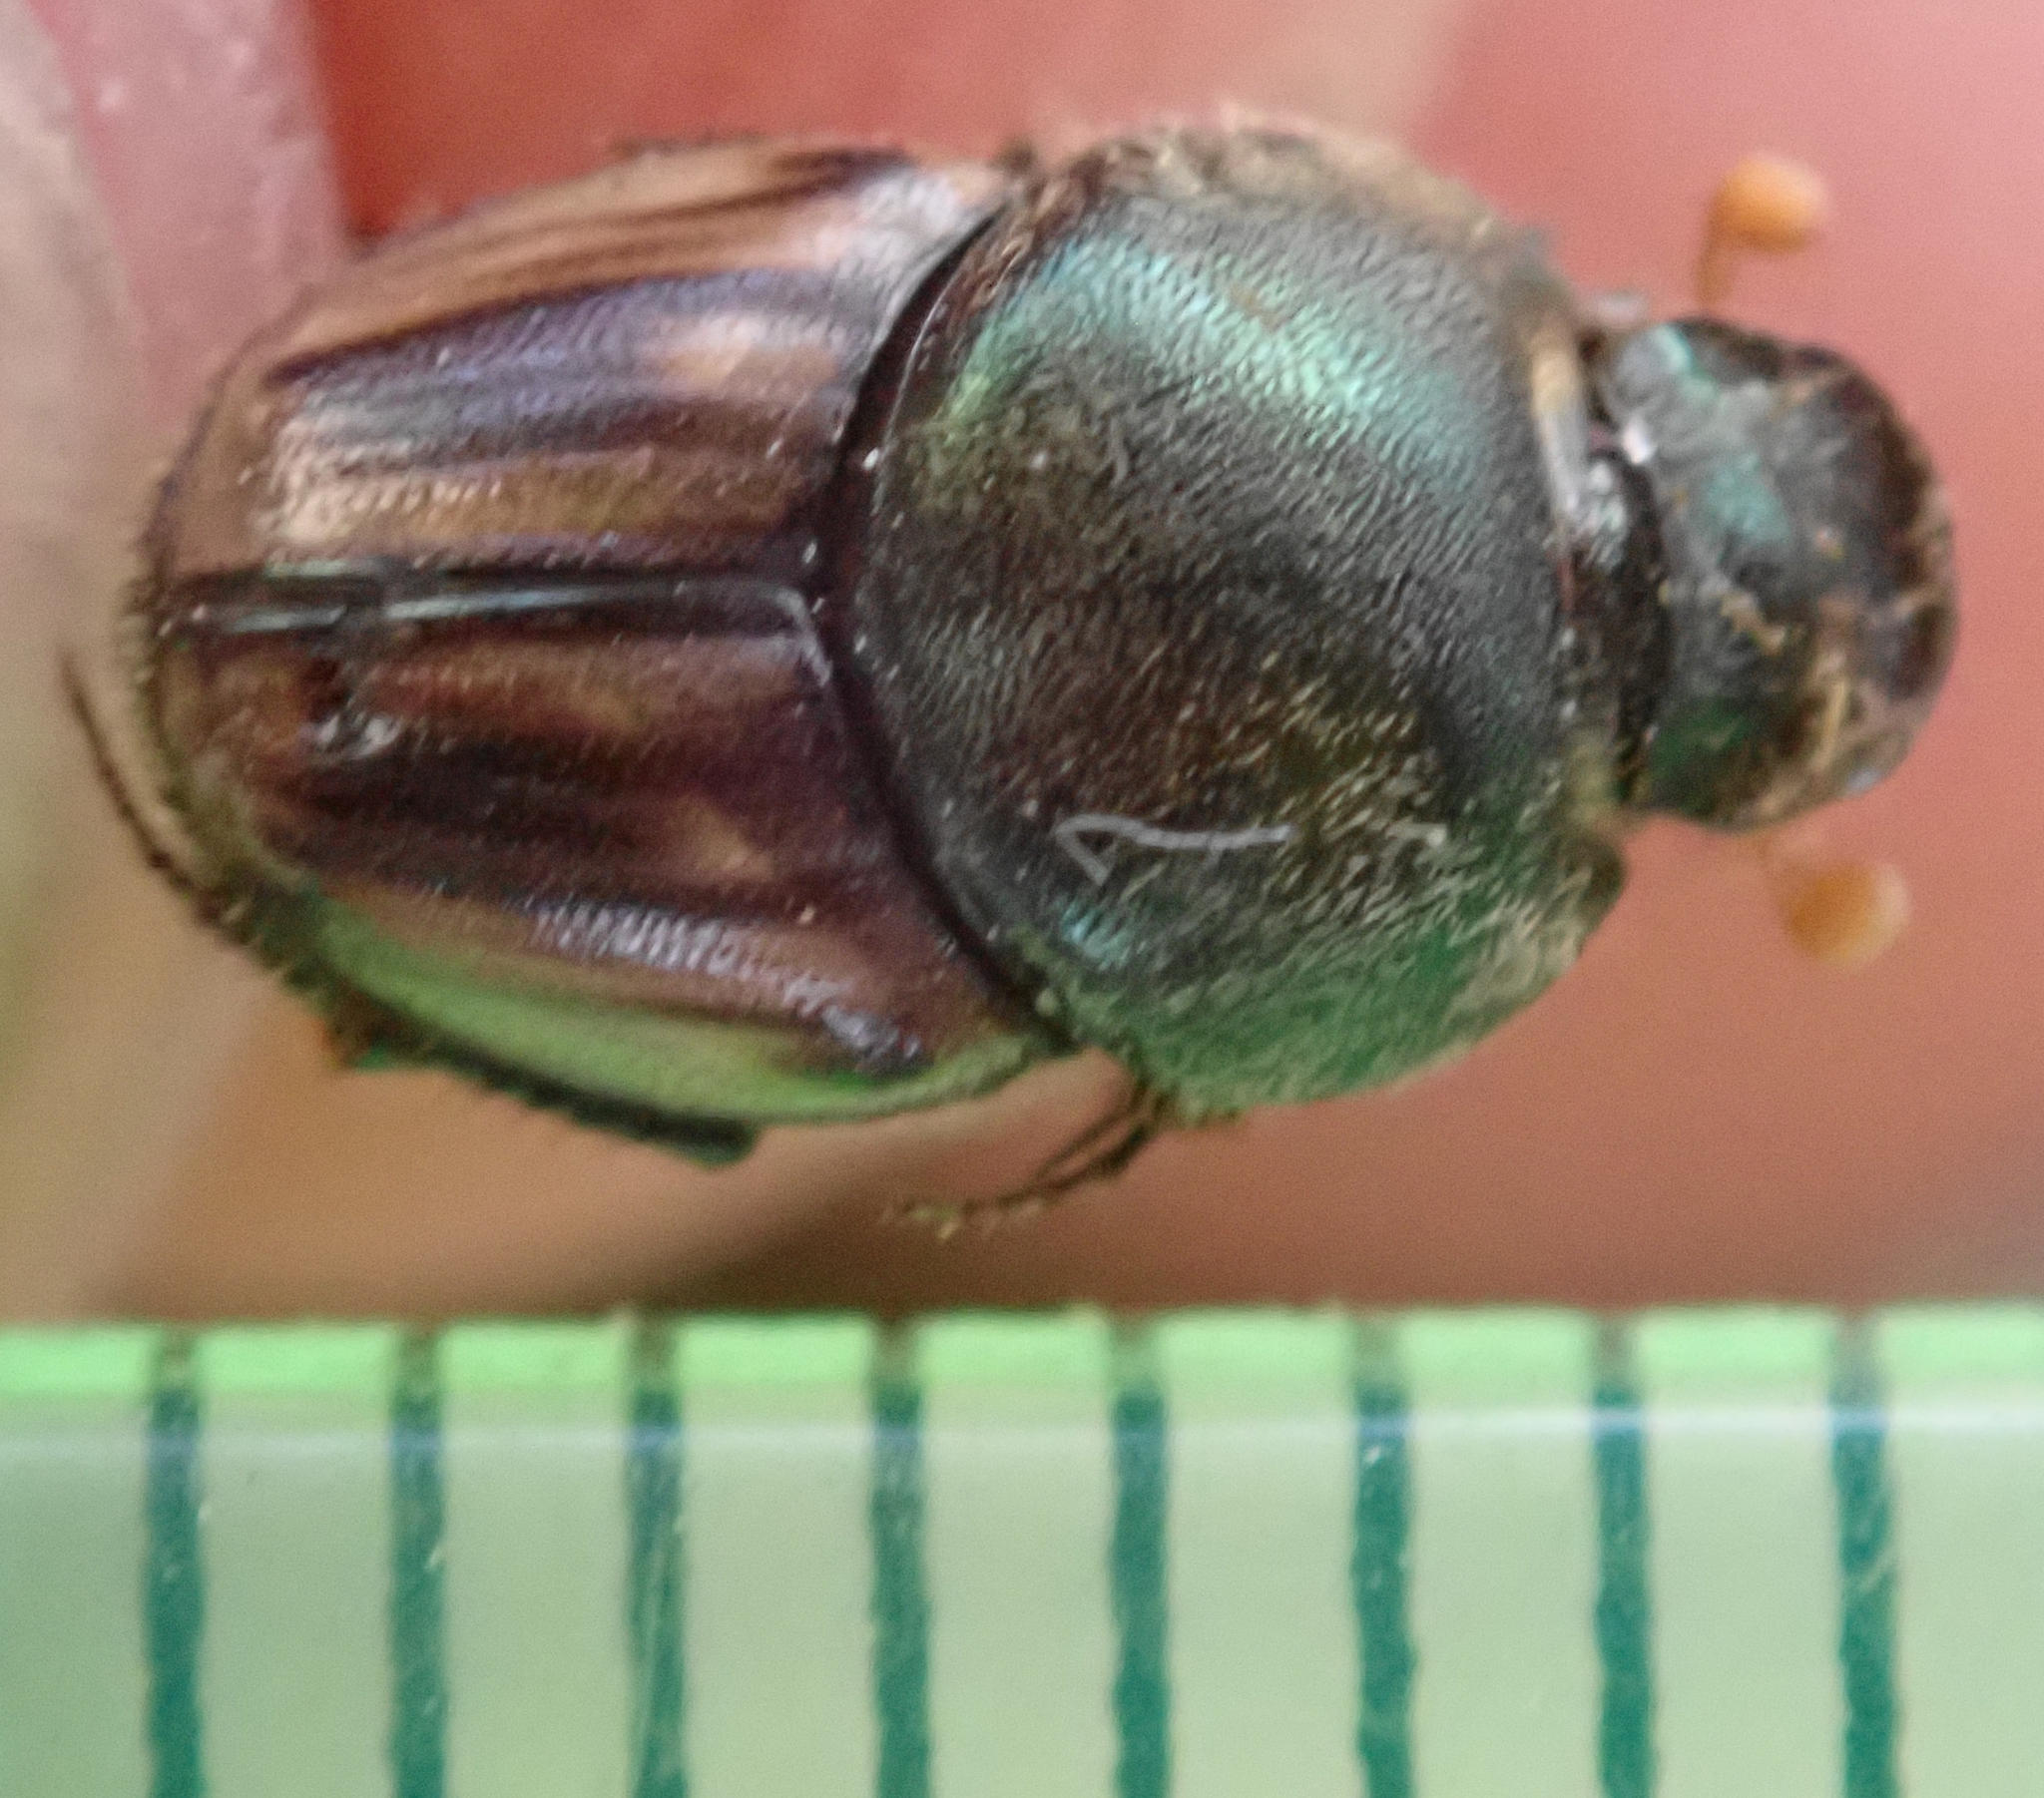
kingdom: Animalia
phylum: Arthropoda
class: Insecta
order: Coleoptera
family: Scarabaeidae
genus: Kurtops
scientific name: Kurtops quadraticeps
